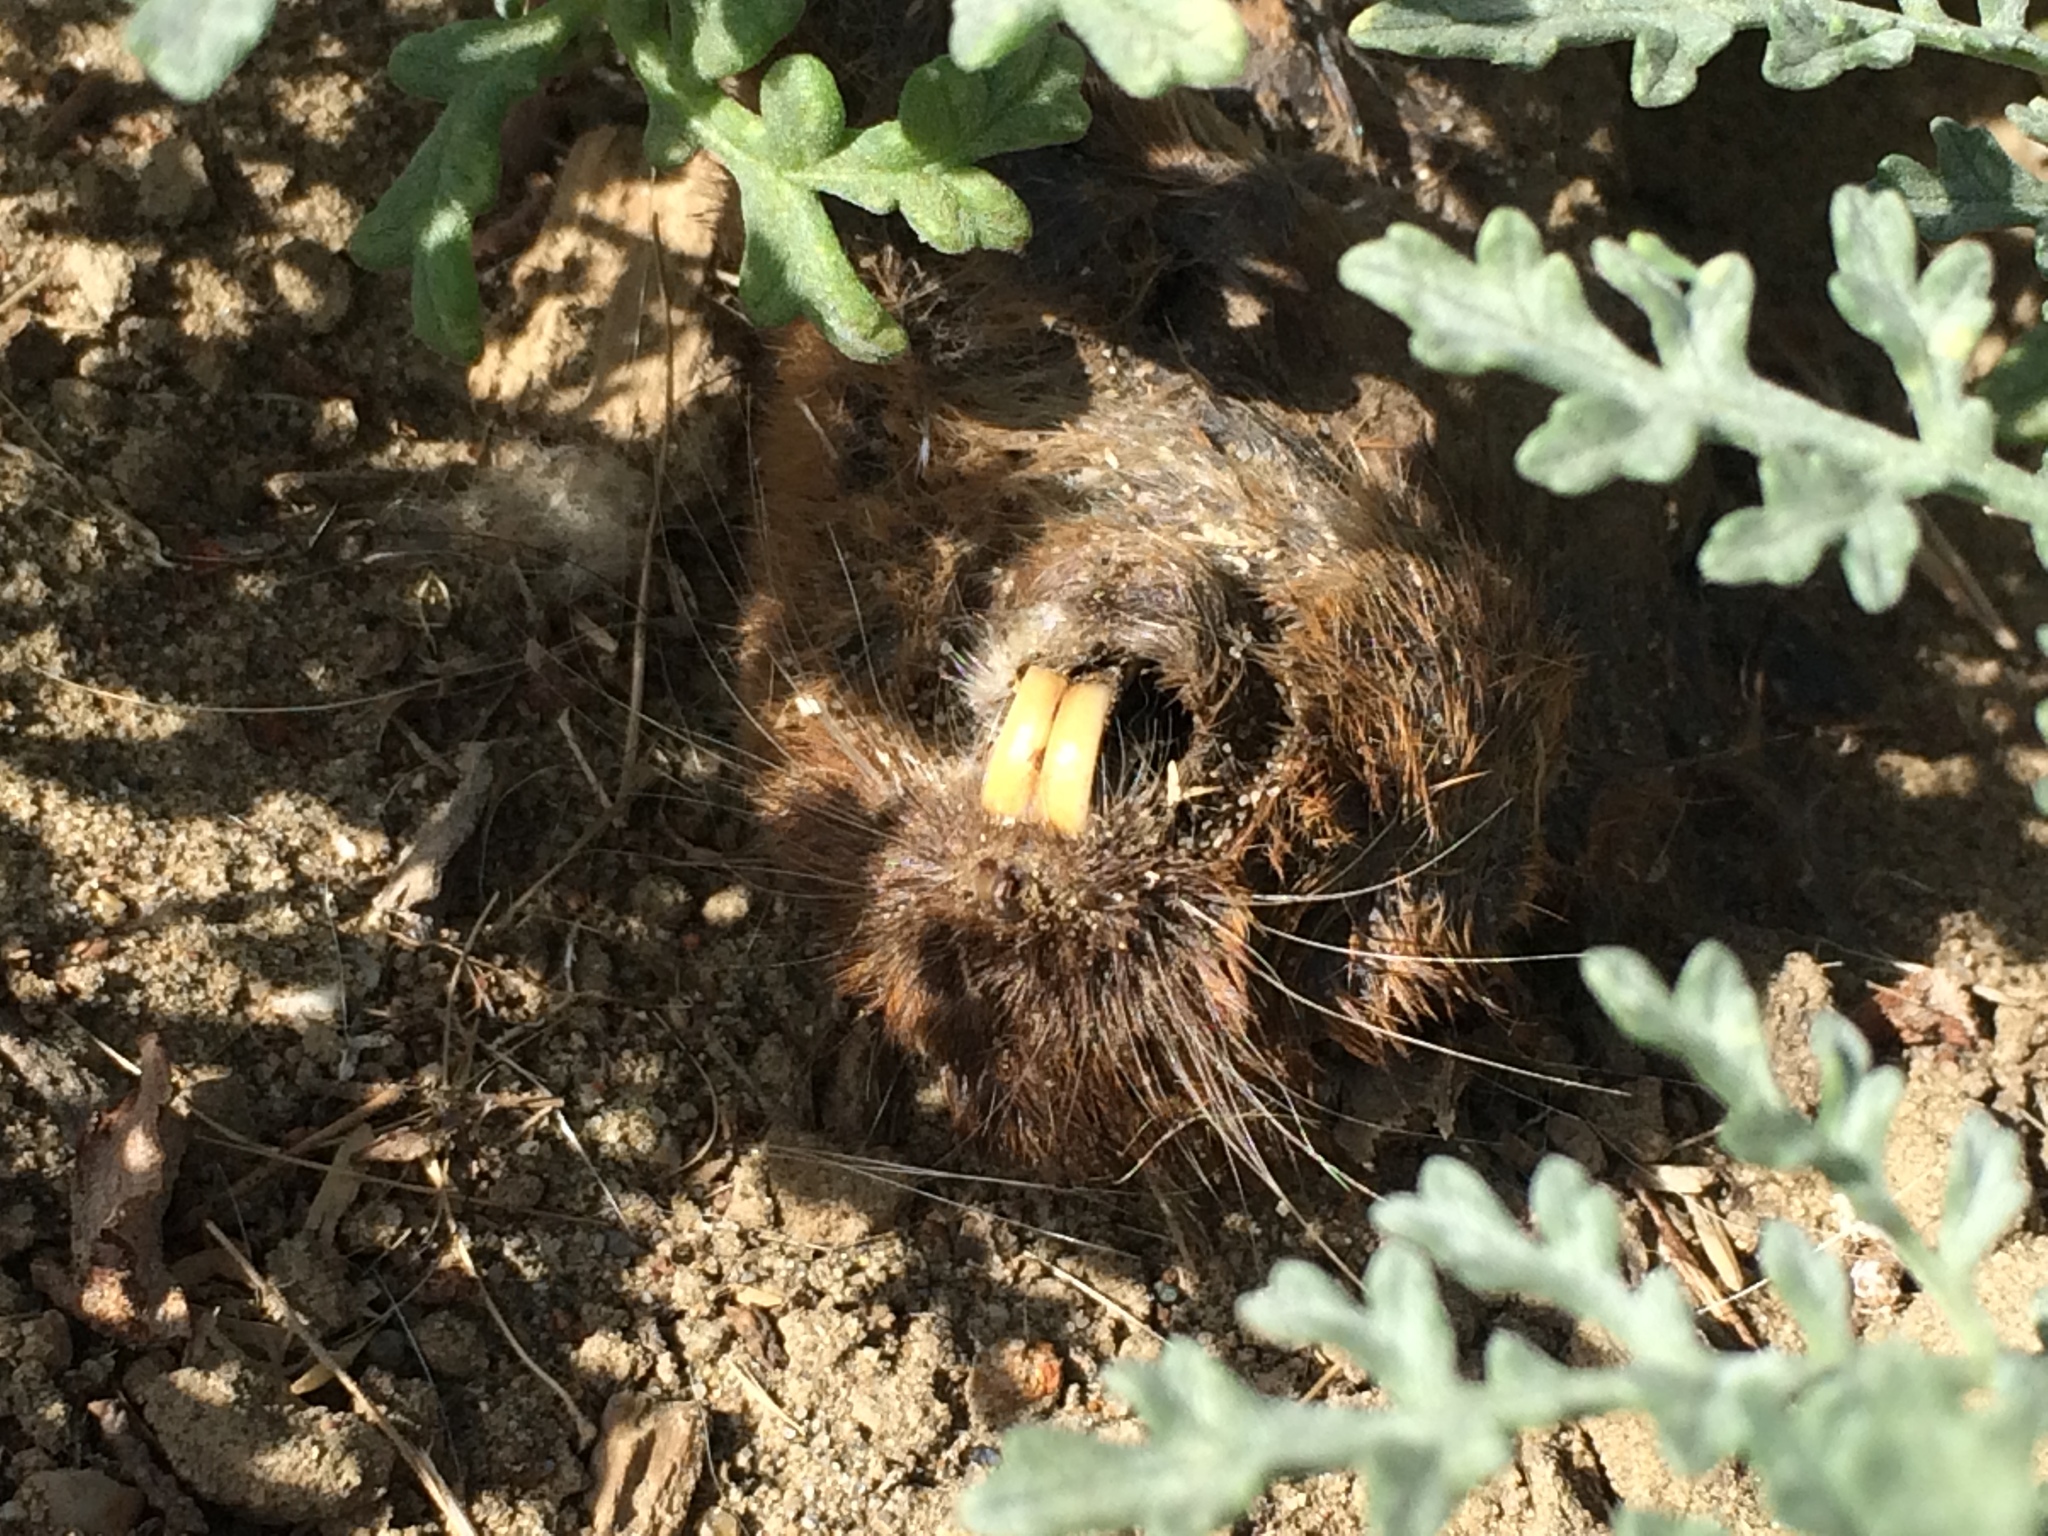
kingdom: Animalia
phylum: Chordata
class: Mammalia
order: Rodentia
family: Geomyidae
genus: Thomomys
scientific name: Thomomys bottae
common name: Botta's pocket gopher
